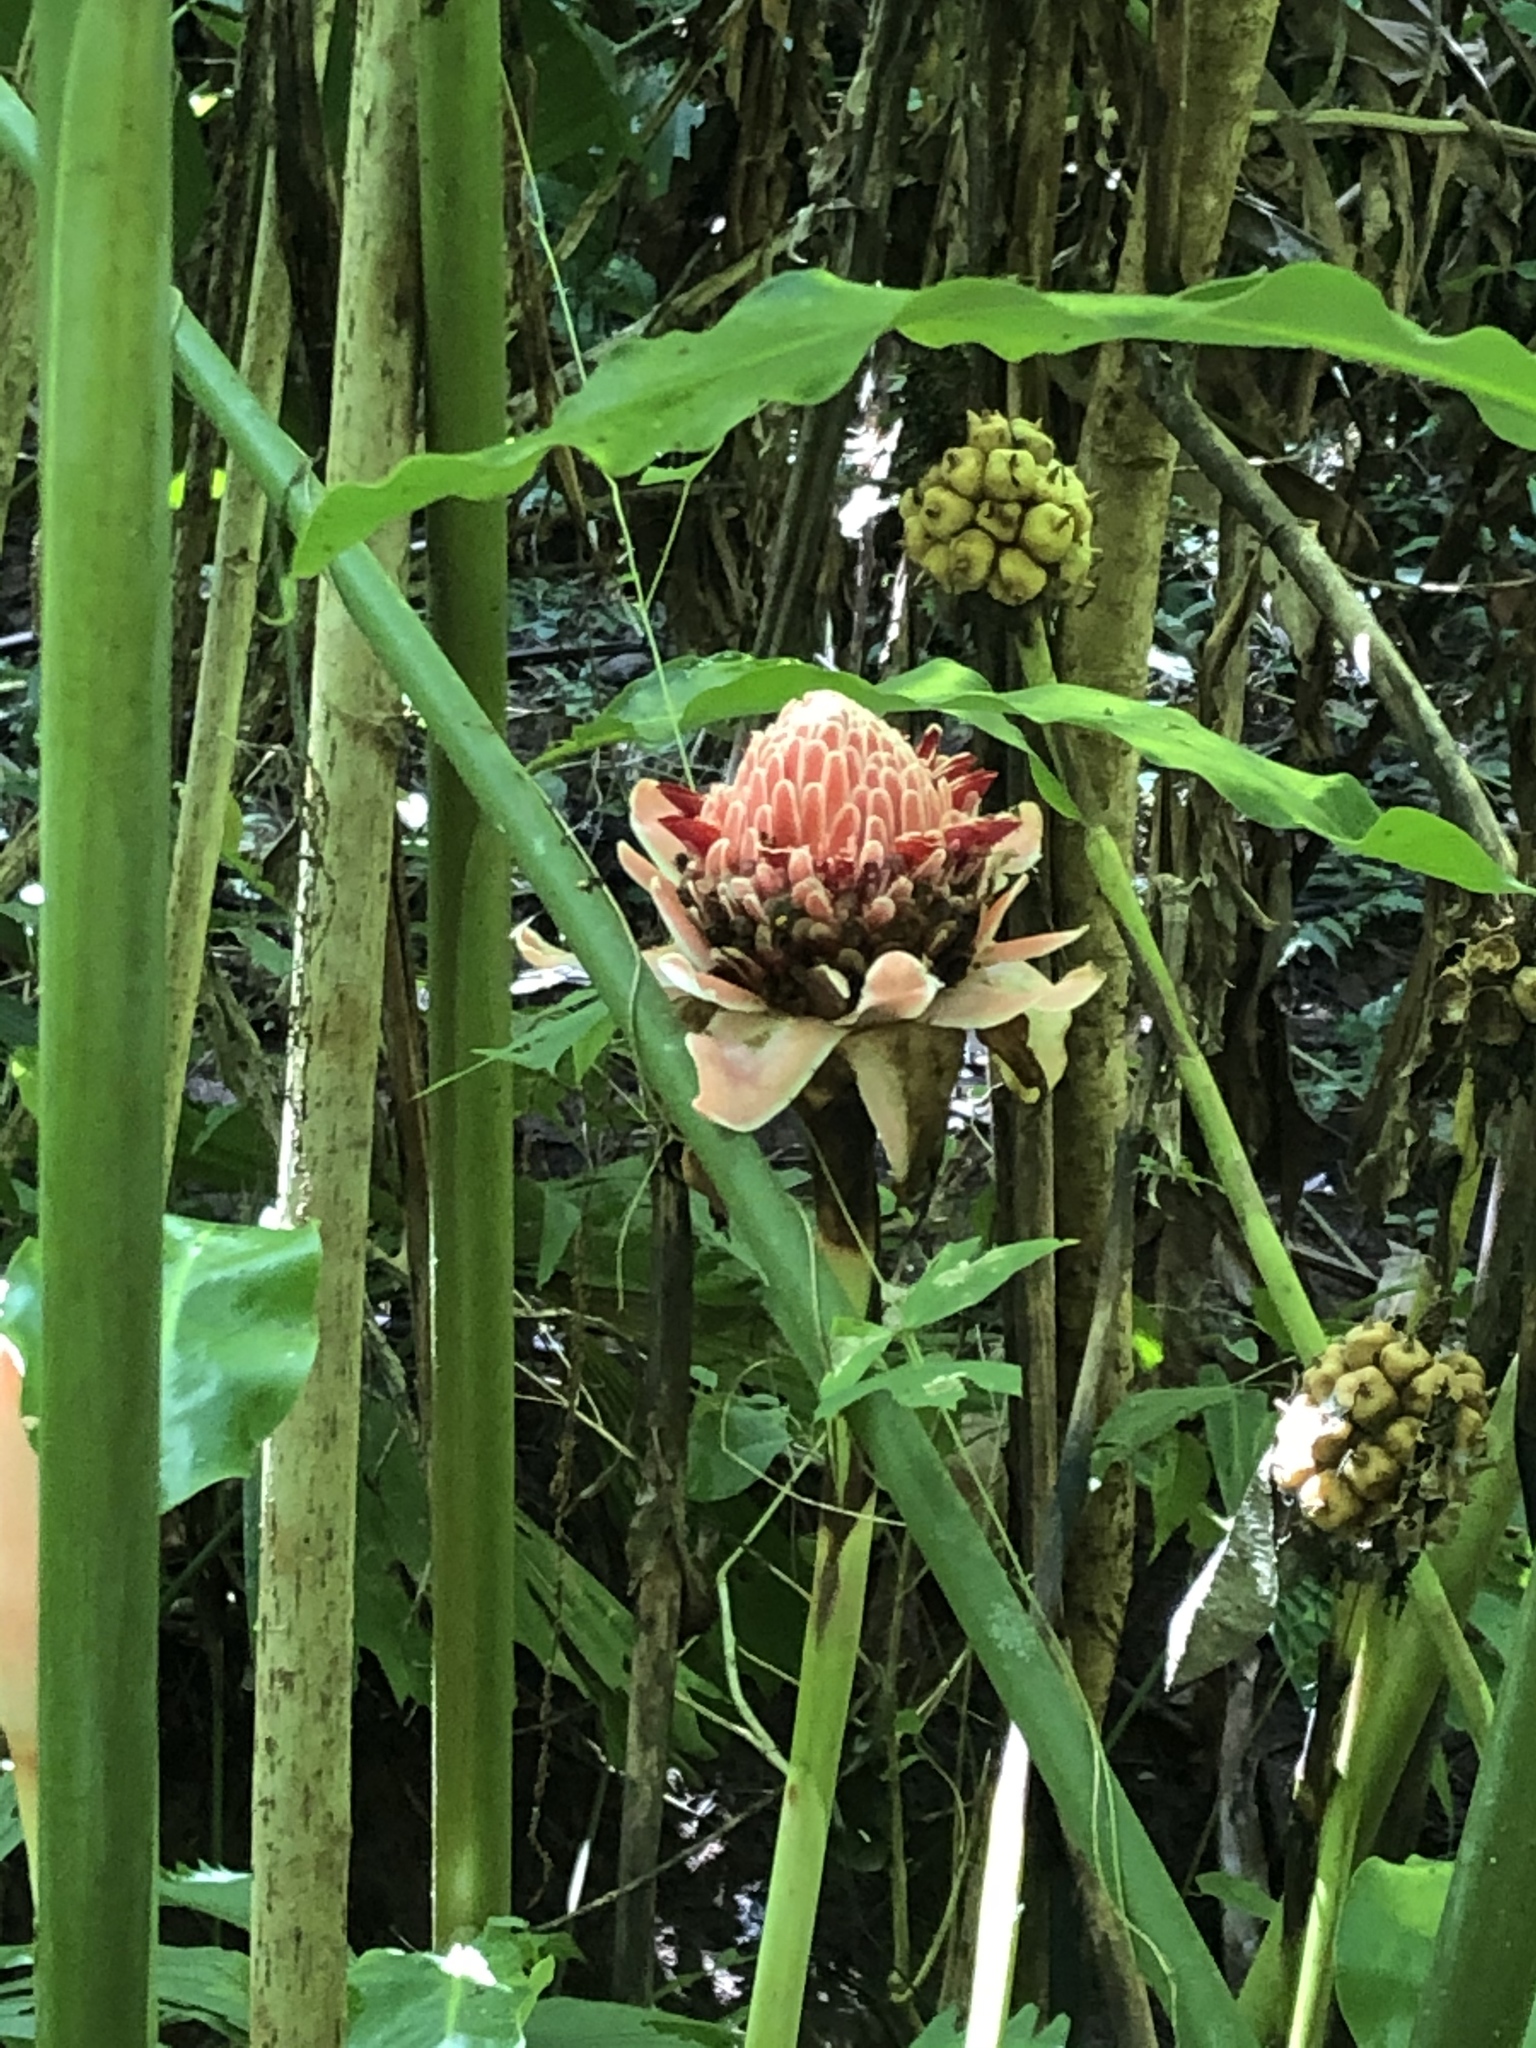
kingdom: Plantae
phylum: Tracheophyta
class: Liliopsida
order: Zingiberales
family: Zingiberaceae
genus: Etlingera
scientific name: Etlingera elatior
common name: Philippine waxflower
